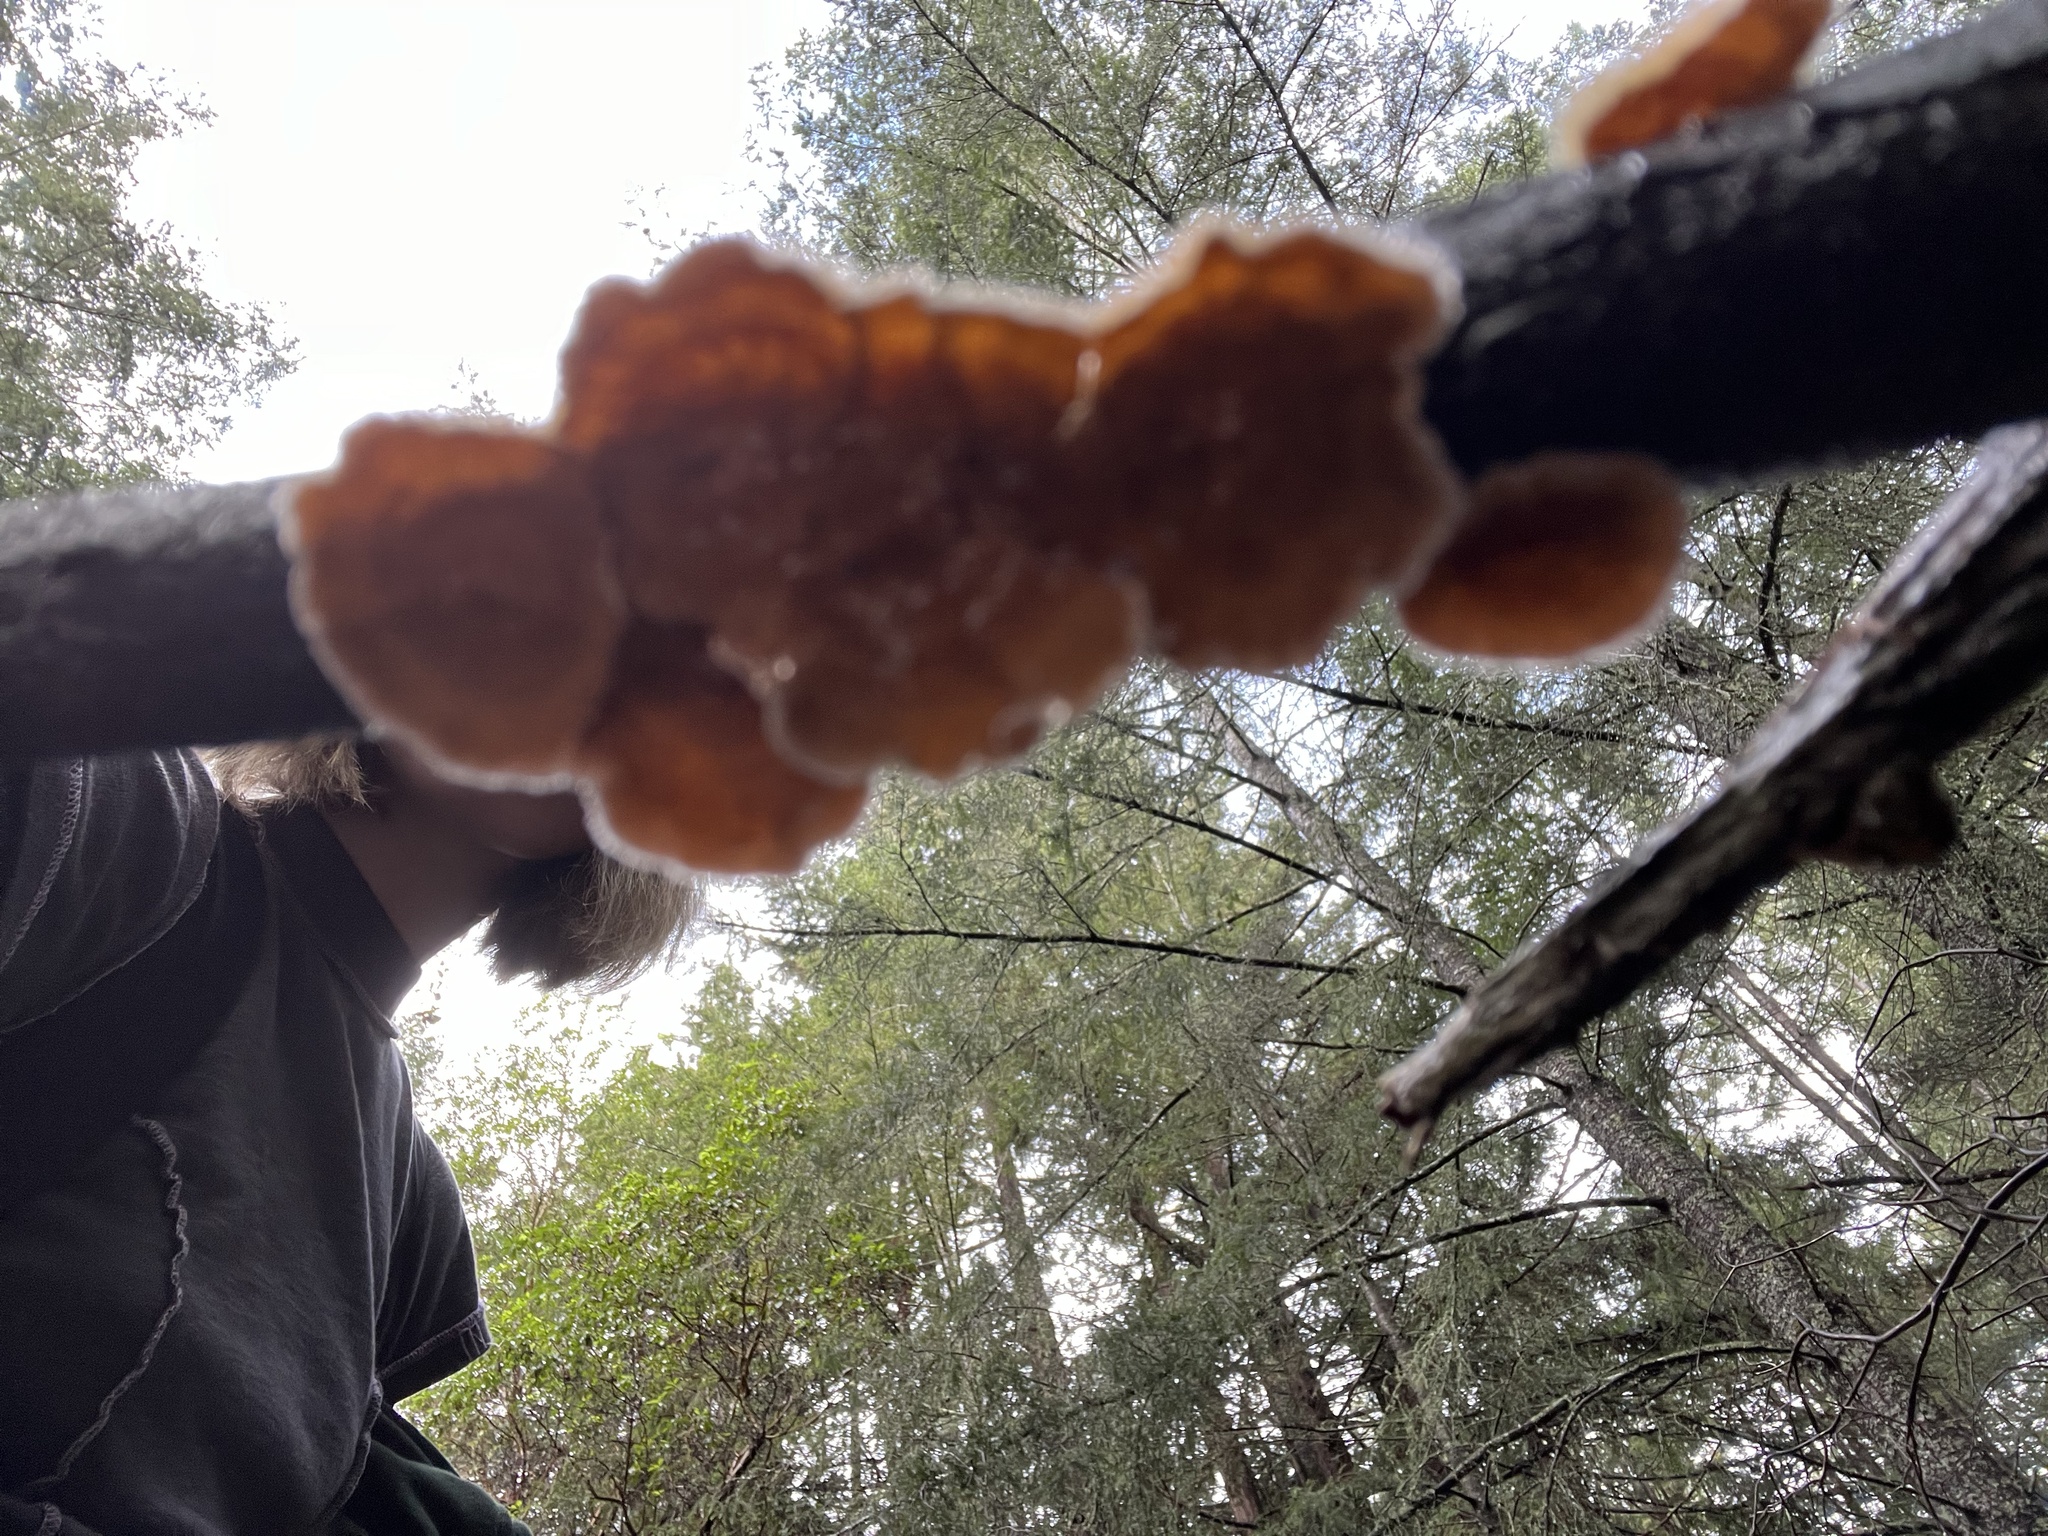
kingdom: Fungi
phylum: Basidiomycota
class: Agaricomycetes
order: Russulales
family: Stereaceae
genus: Stereum
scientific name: Stereum ochraceoflavum
